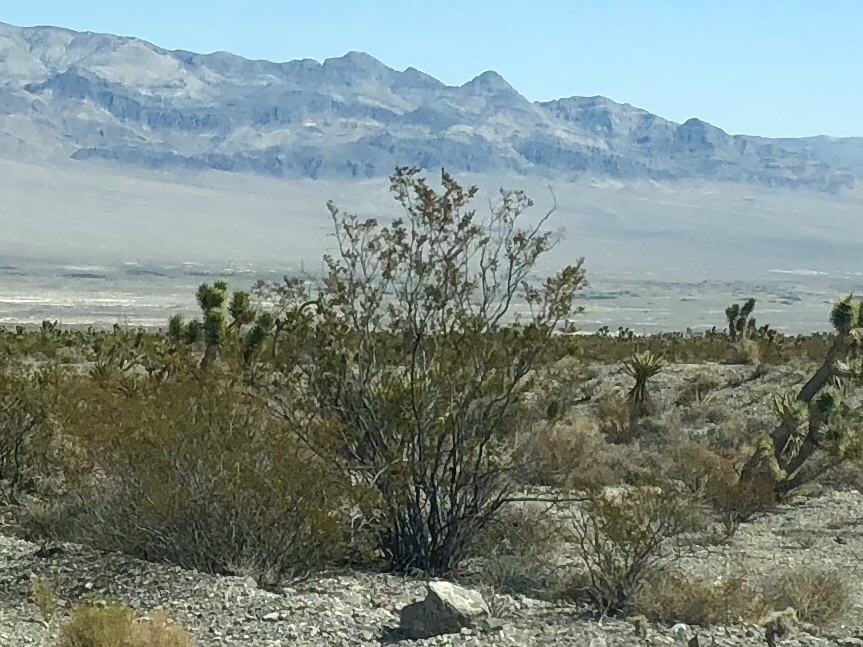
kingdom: Plantae
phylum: Tracheophyta
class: Magnoliopsida
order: Zygophyllales
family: Zygophyllaceae
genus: Larrea
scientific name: Larrea tridentata
